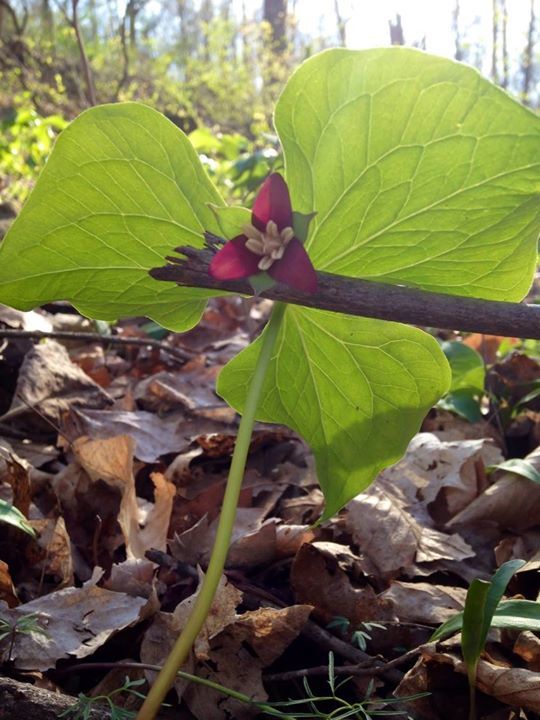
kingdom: Plantae
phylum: Tracheophyta
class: Liliopsida
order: Liliales
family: Melanthiaceae
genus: Trillium
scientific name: Trillium flexipes
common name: Drooping trillium
